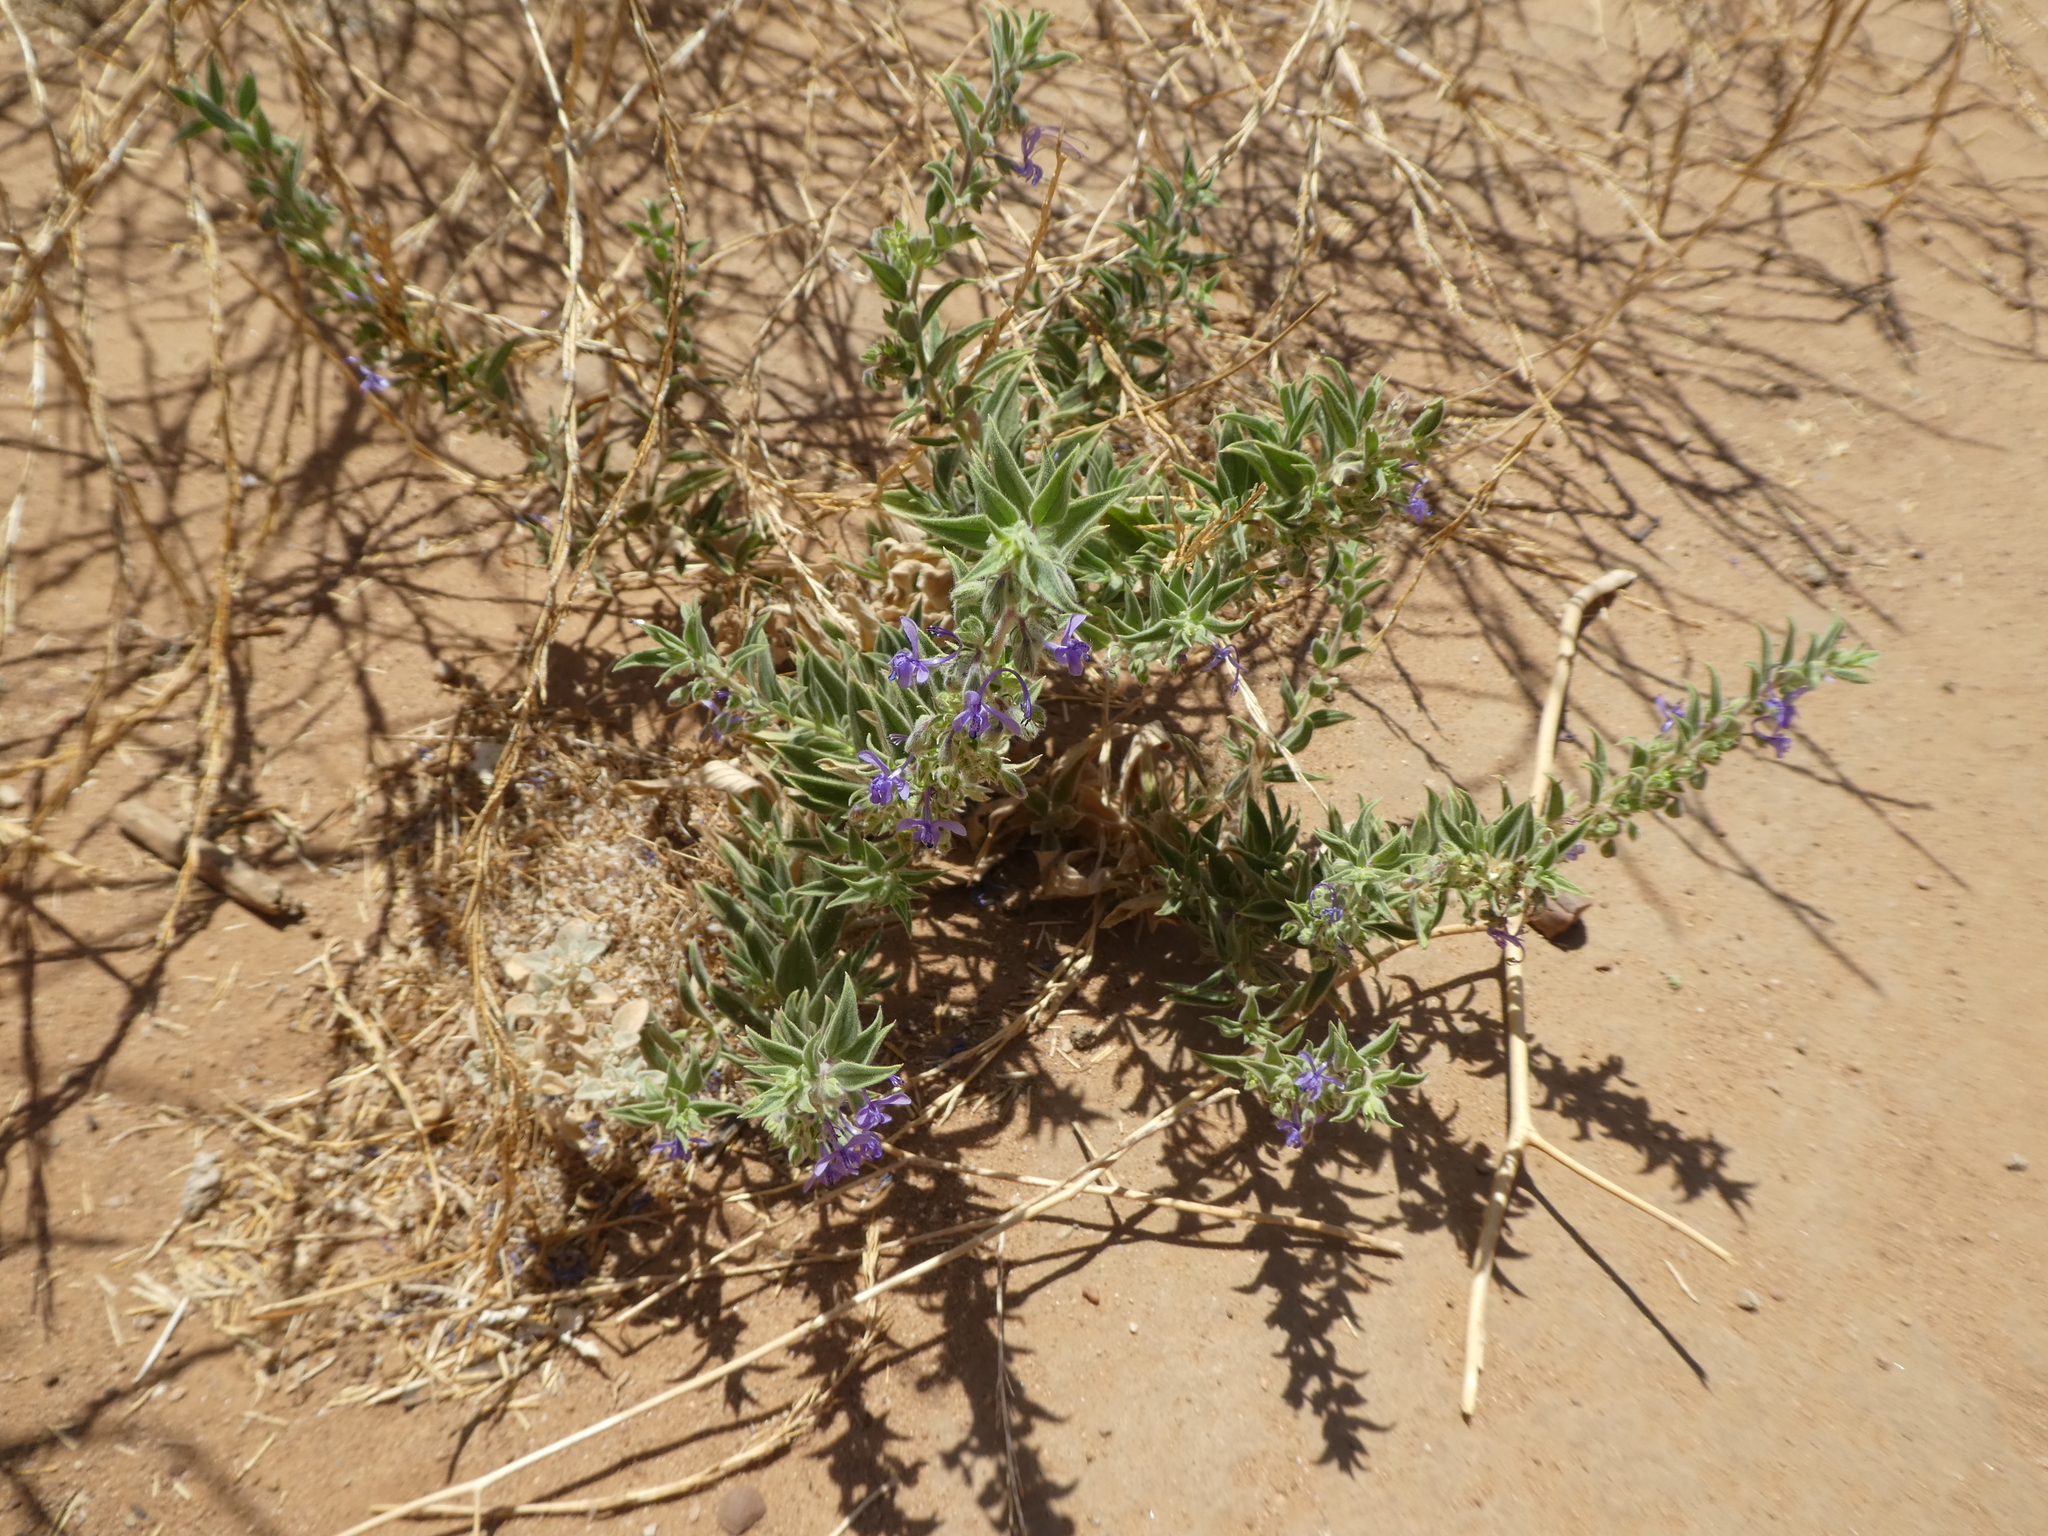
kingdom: Plantae
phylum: Tracheophyta
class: Magnoliopsida
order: Lamiales
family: Lamiaceae
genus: Trichostema
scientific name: Trichostema lanceolatum
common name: Vinegar-weed
